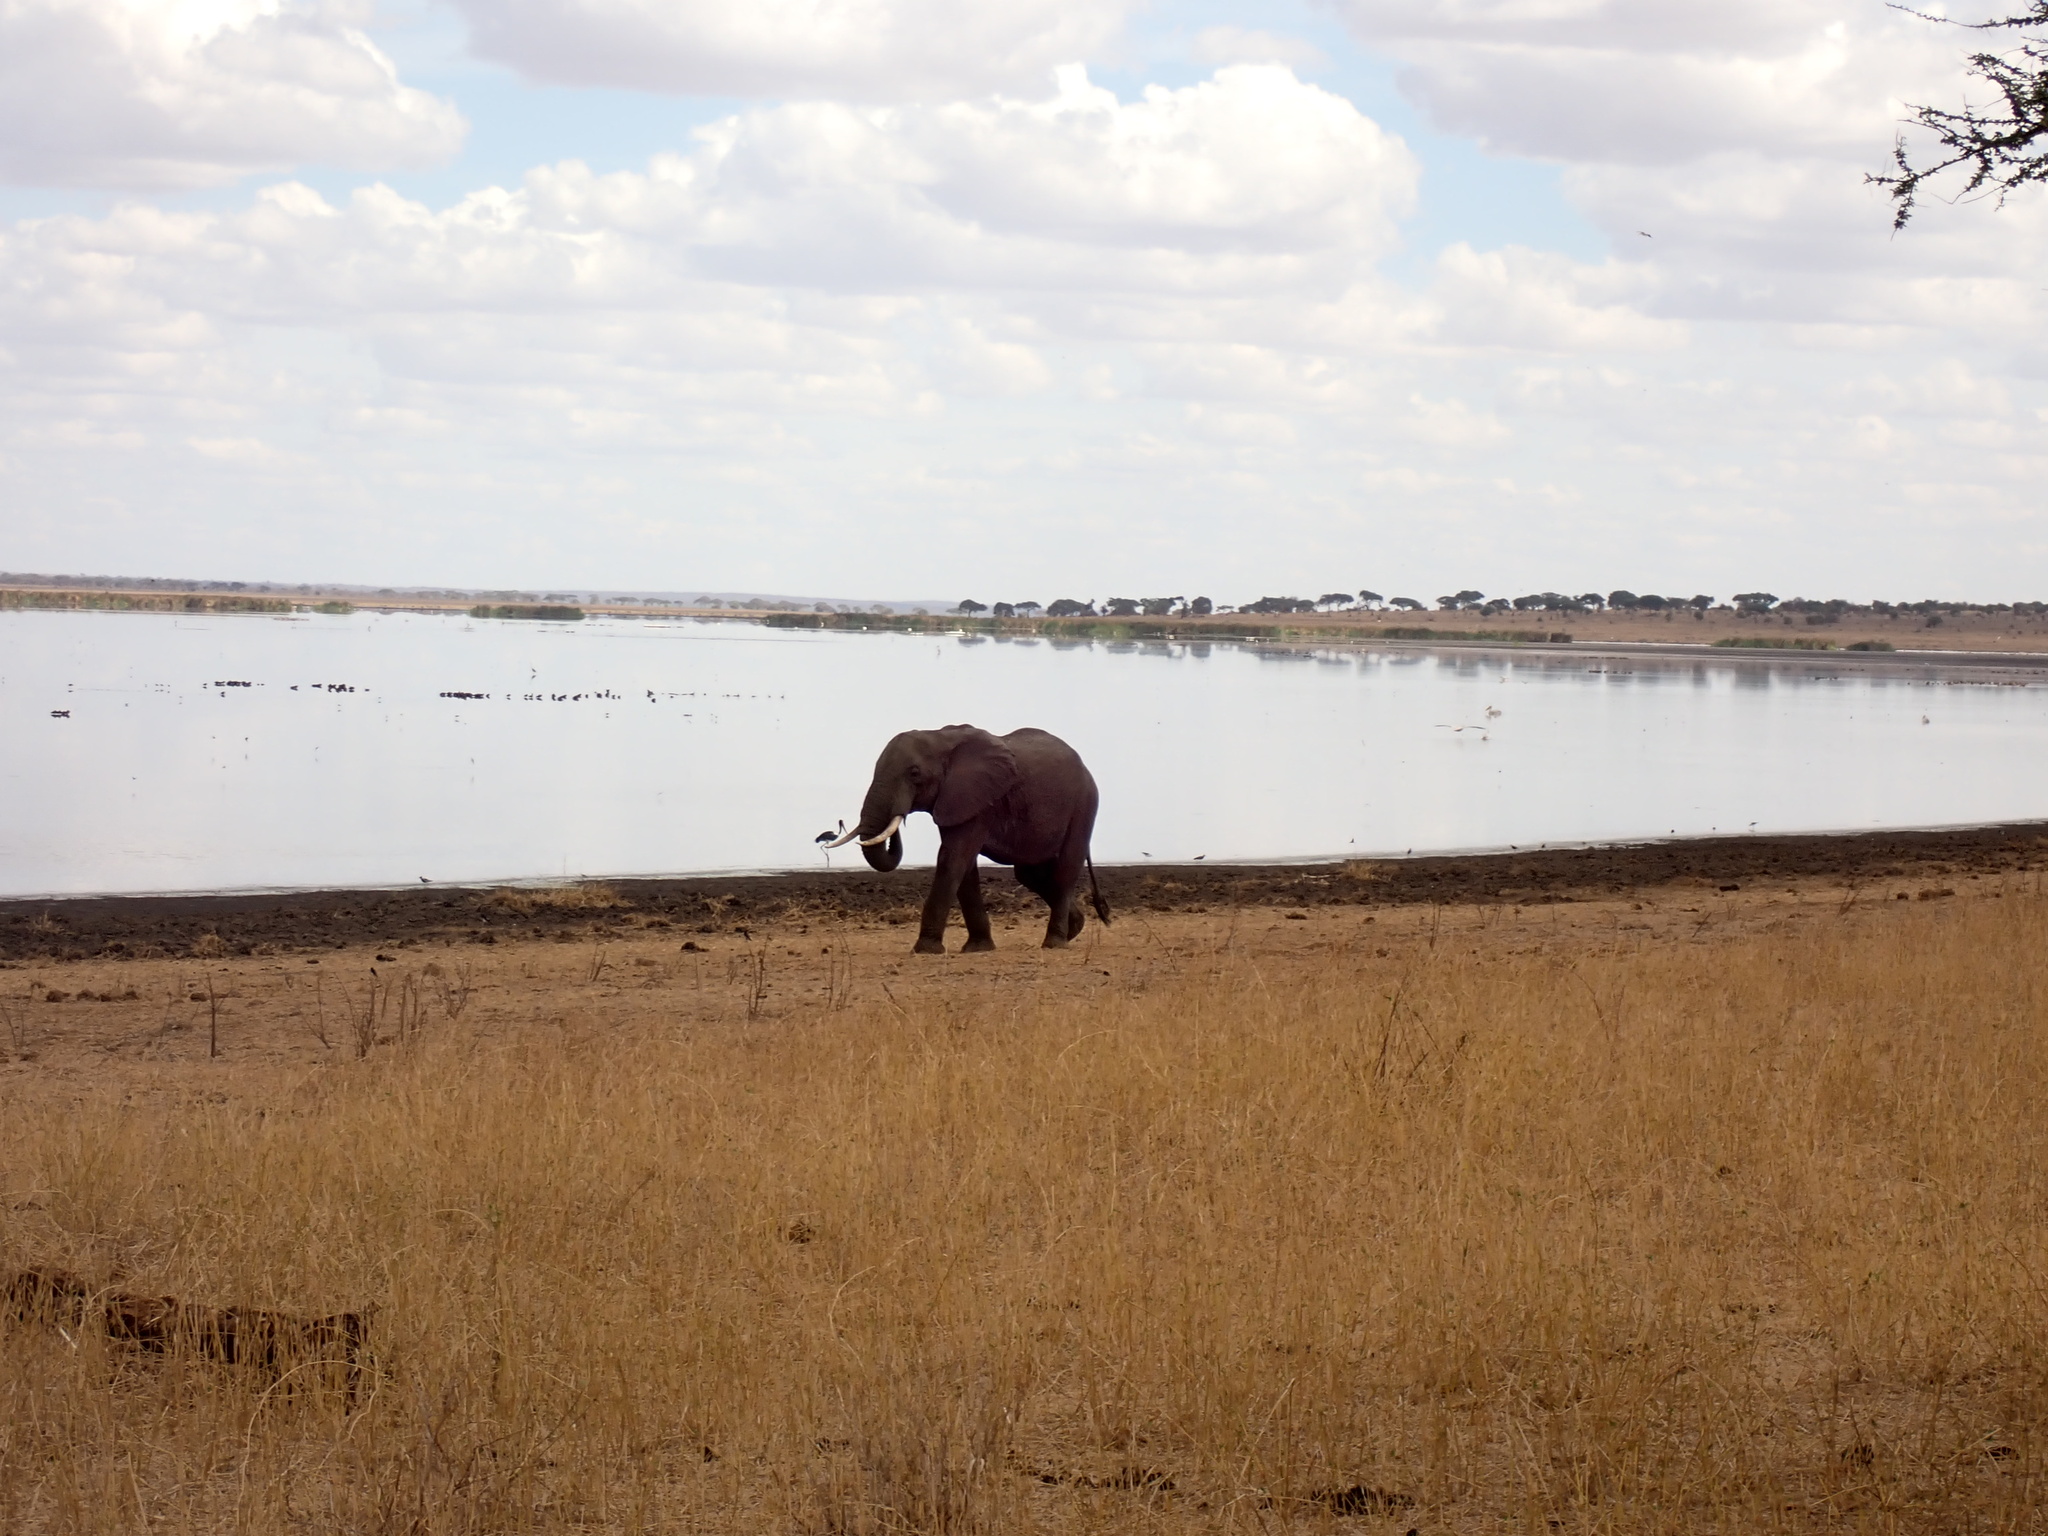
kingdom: Animalia
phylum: Chordata
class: Mammalia
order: Proboscidea
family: Elephantidae
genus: Loxodonta
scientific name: Loxodonta africana
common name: African elephant
